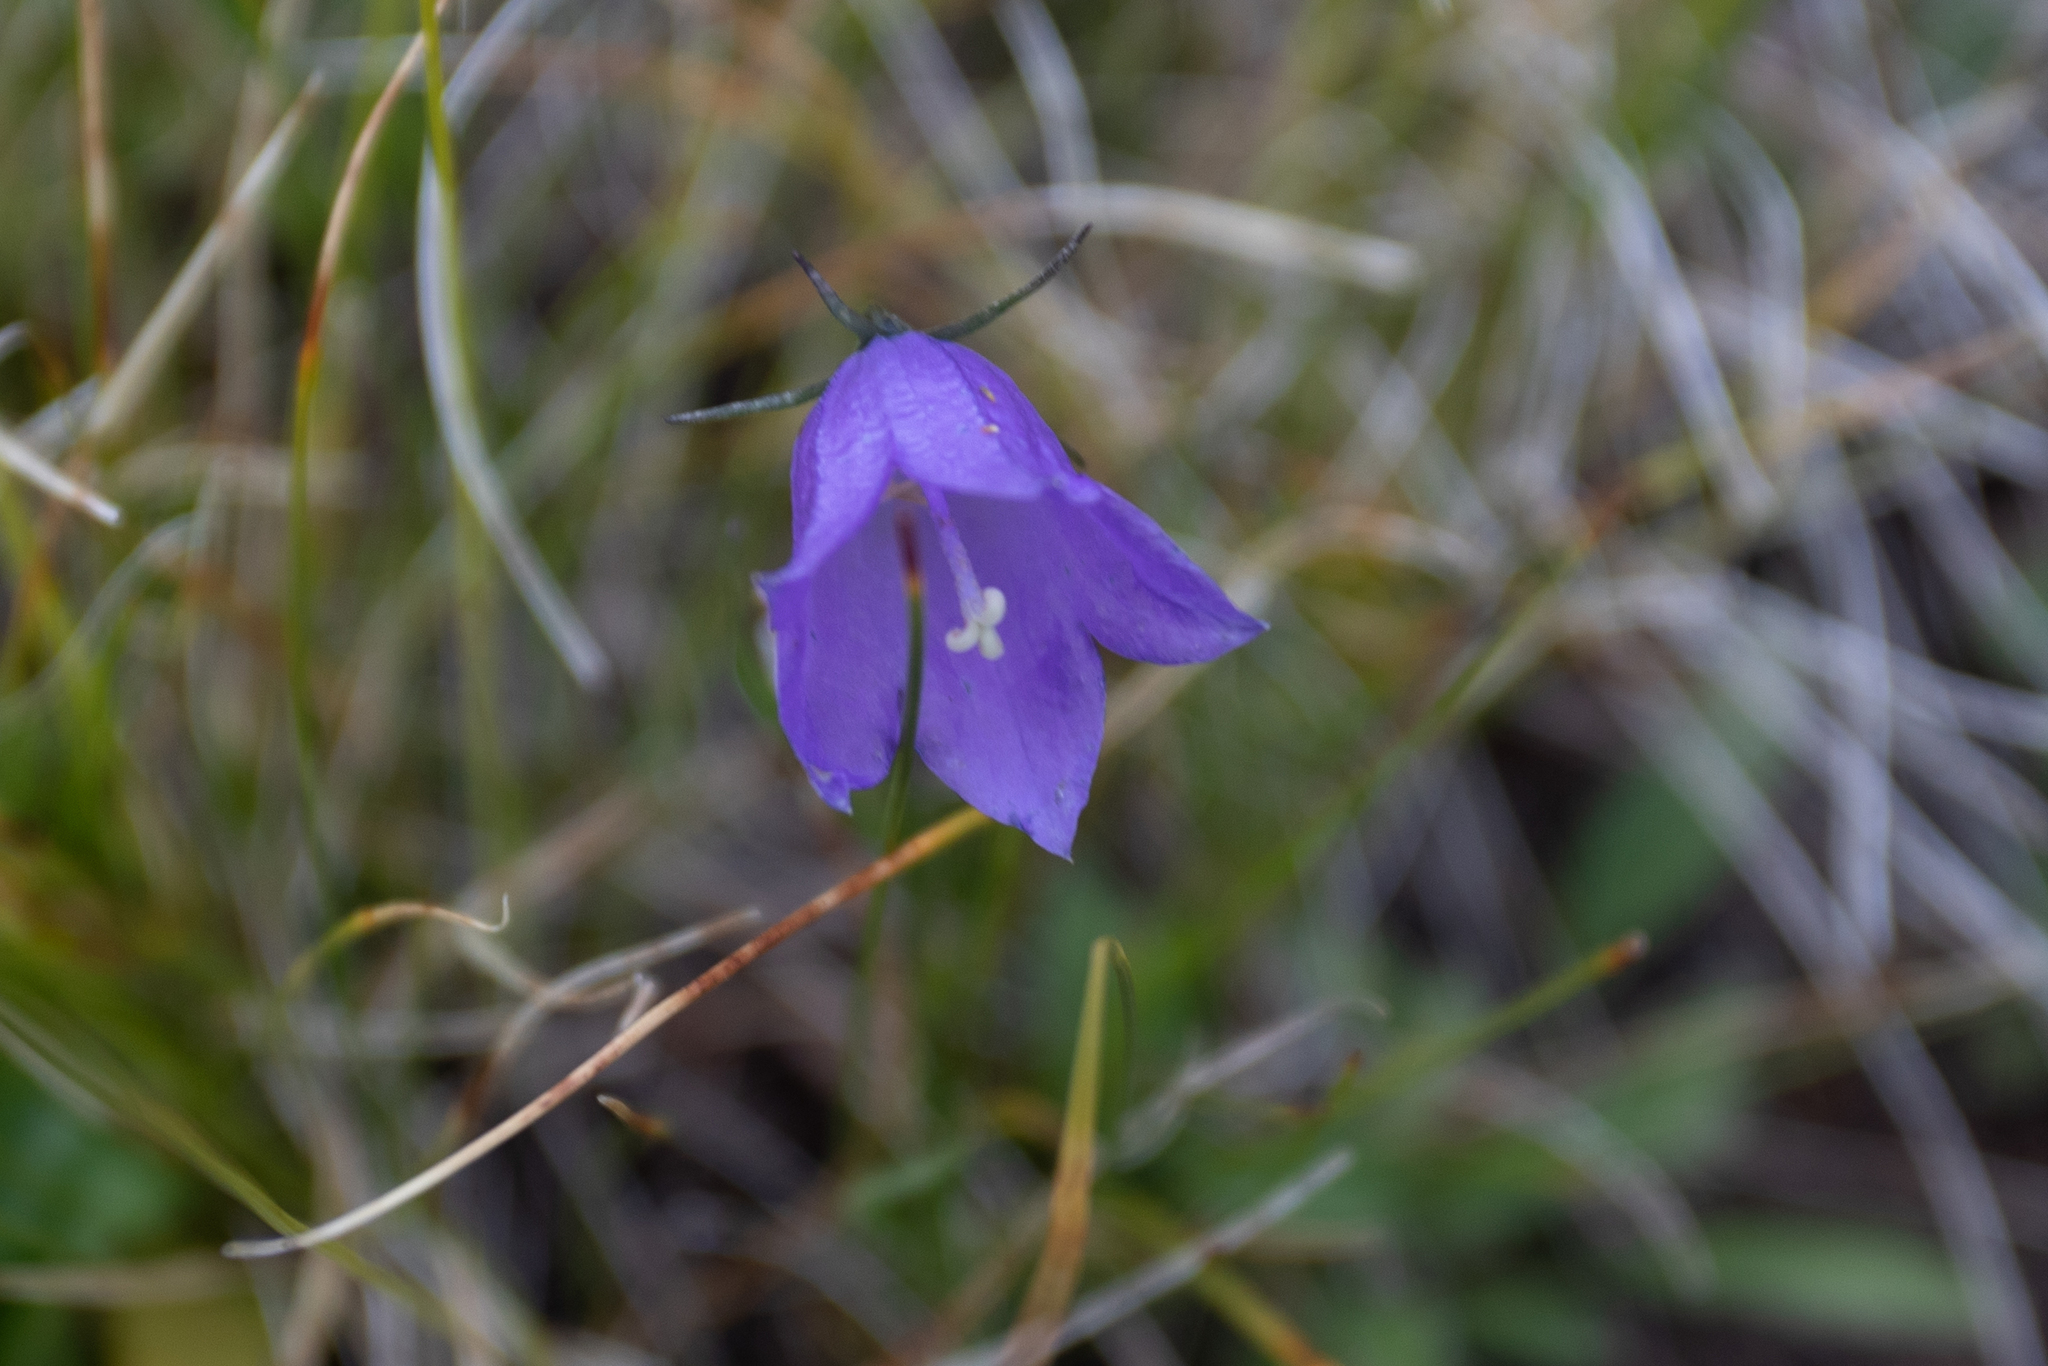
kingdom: Plantae
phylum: Tracheophyta
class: Magnoliopsida
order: Asterales
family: Campanulaceae
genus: Campanula
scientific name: Campanula rotundifolia
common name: Harebell
